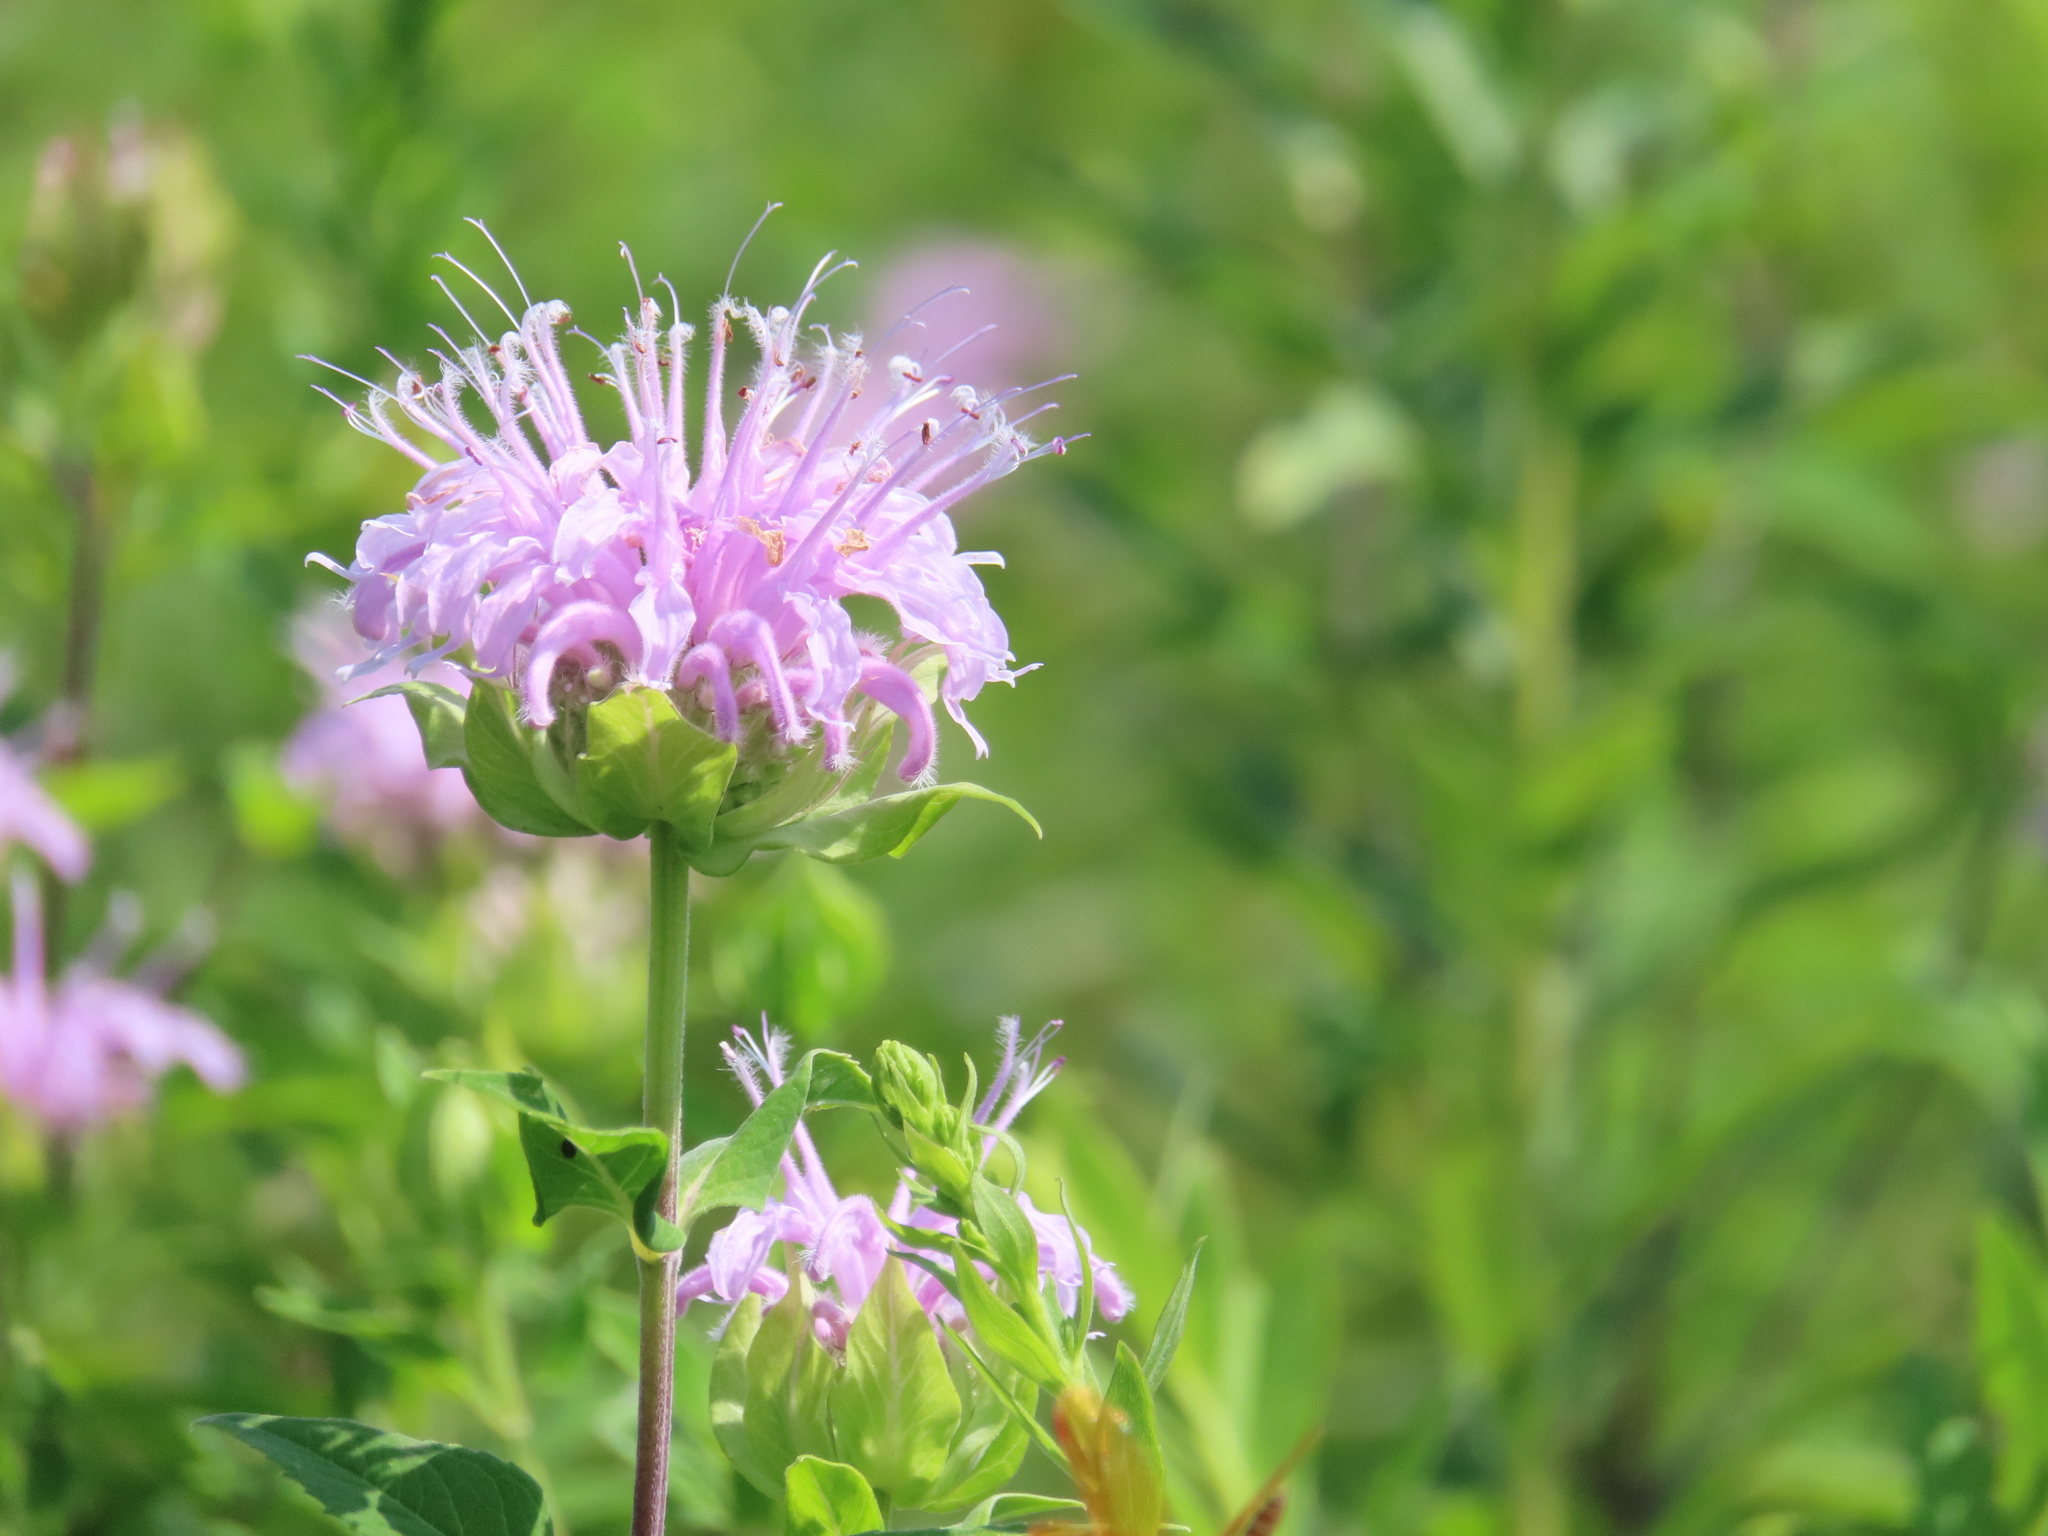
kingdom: Plantae
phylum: Tracheophyta
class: Magnoliopsida
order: Lamiales
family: Lamiaceae
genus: Monarda
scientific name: Monarda fistulosa
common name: Purple beebalm
